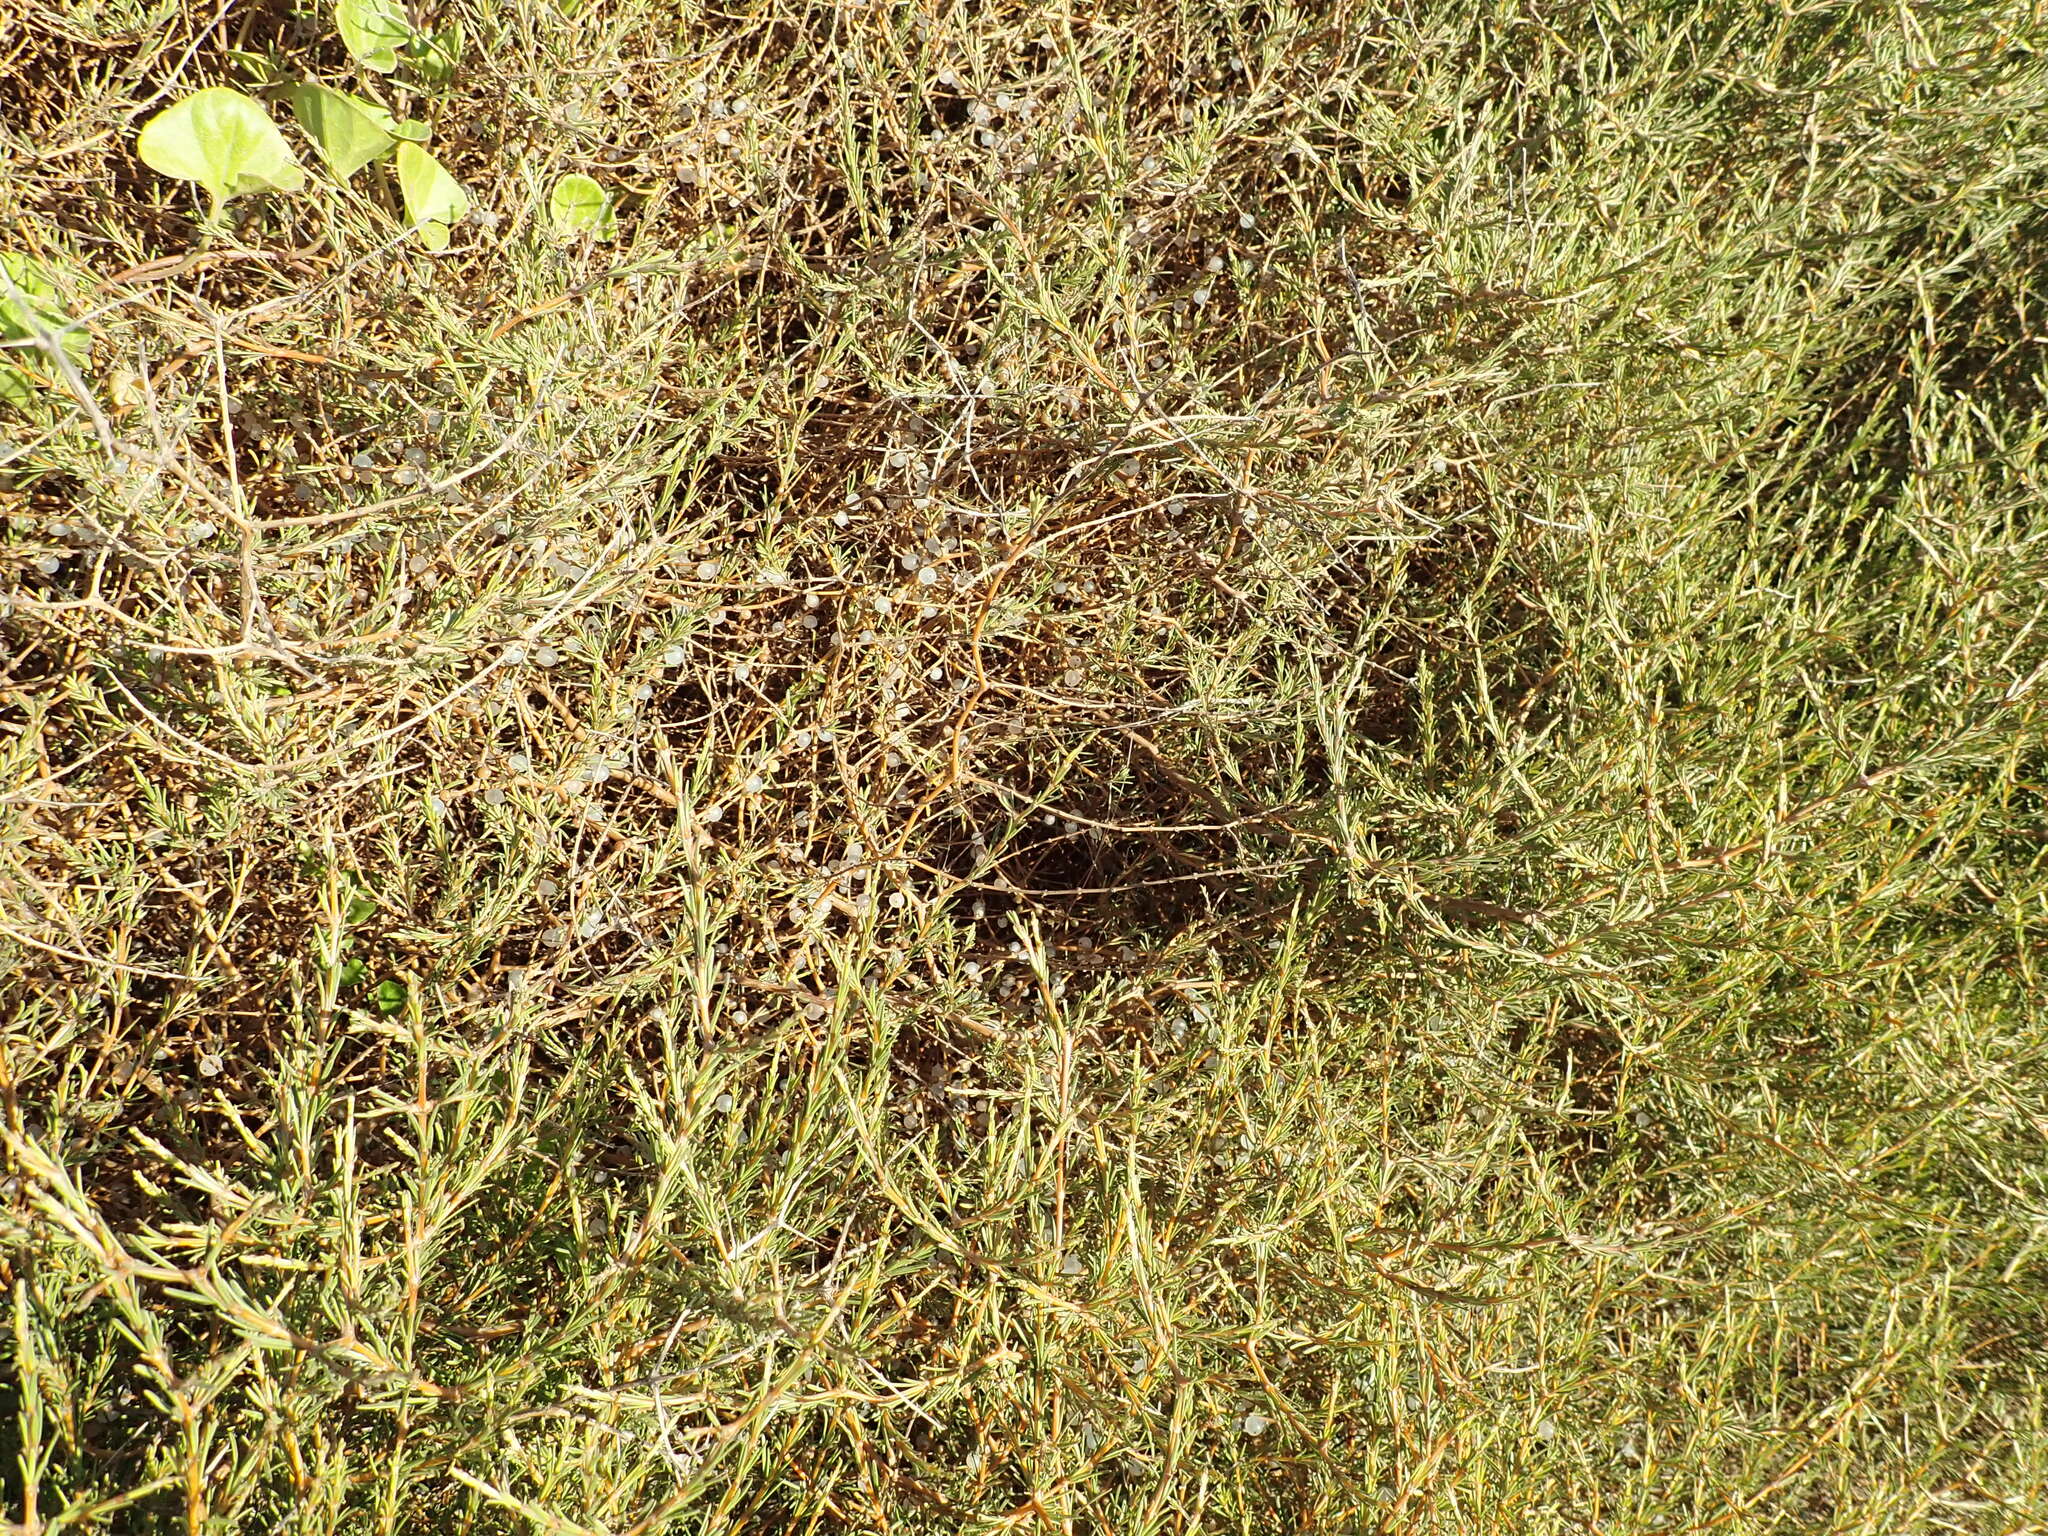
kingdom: Plantae
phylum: Tracheophyta
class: Magnoliopsida
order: Gentianales
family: Rubiaceae
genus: Coprosma
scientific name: Coprosma acerosa
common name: Sand coprosma
